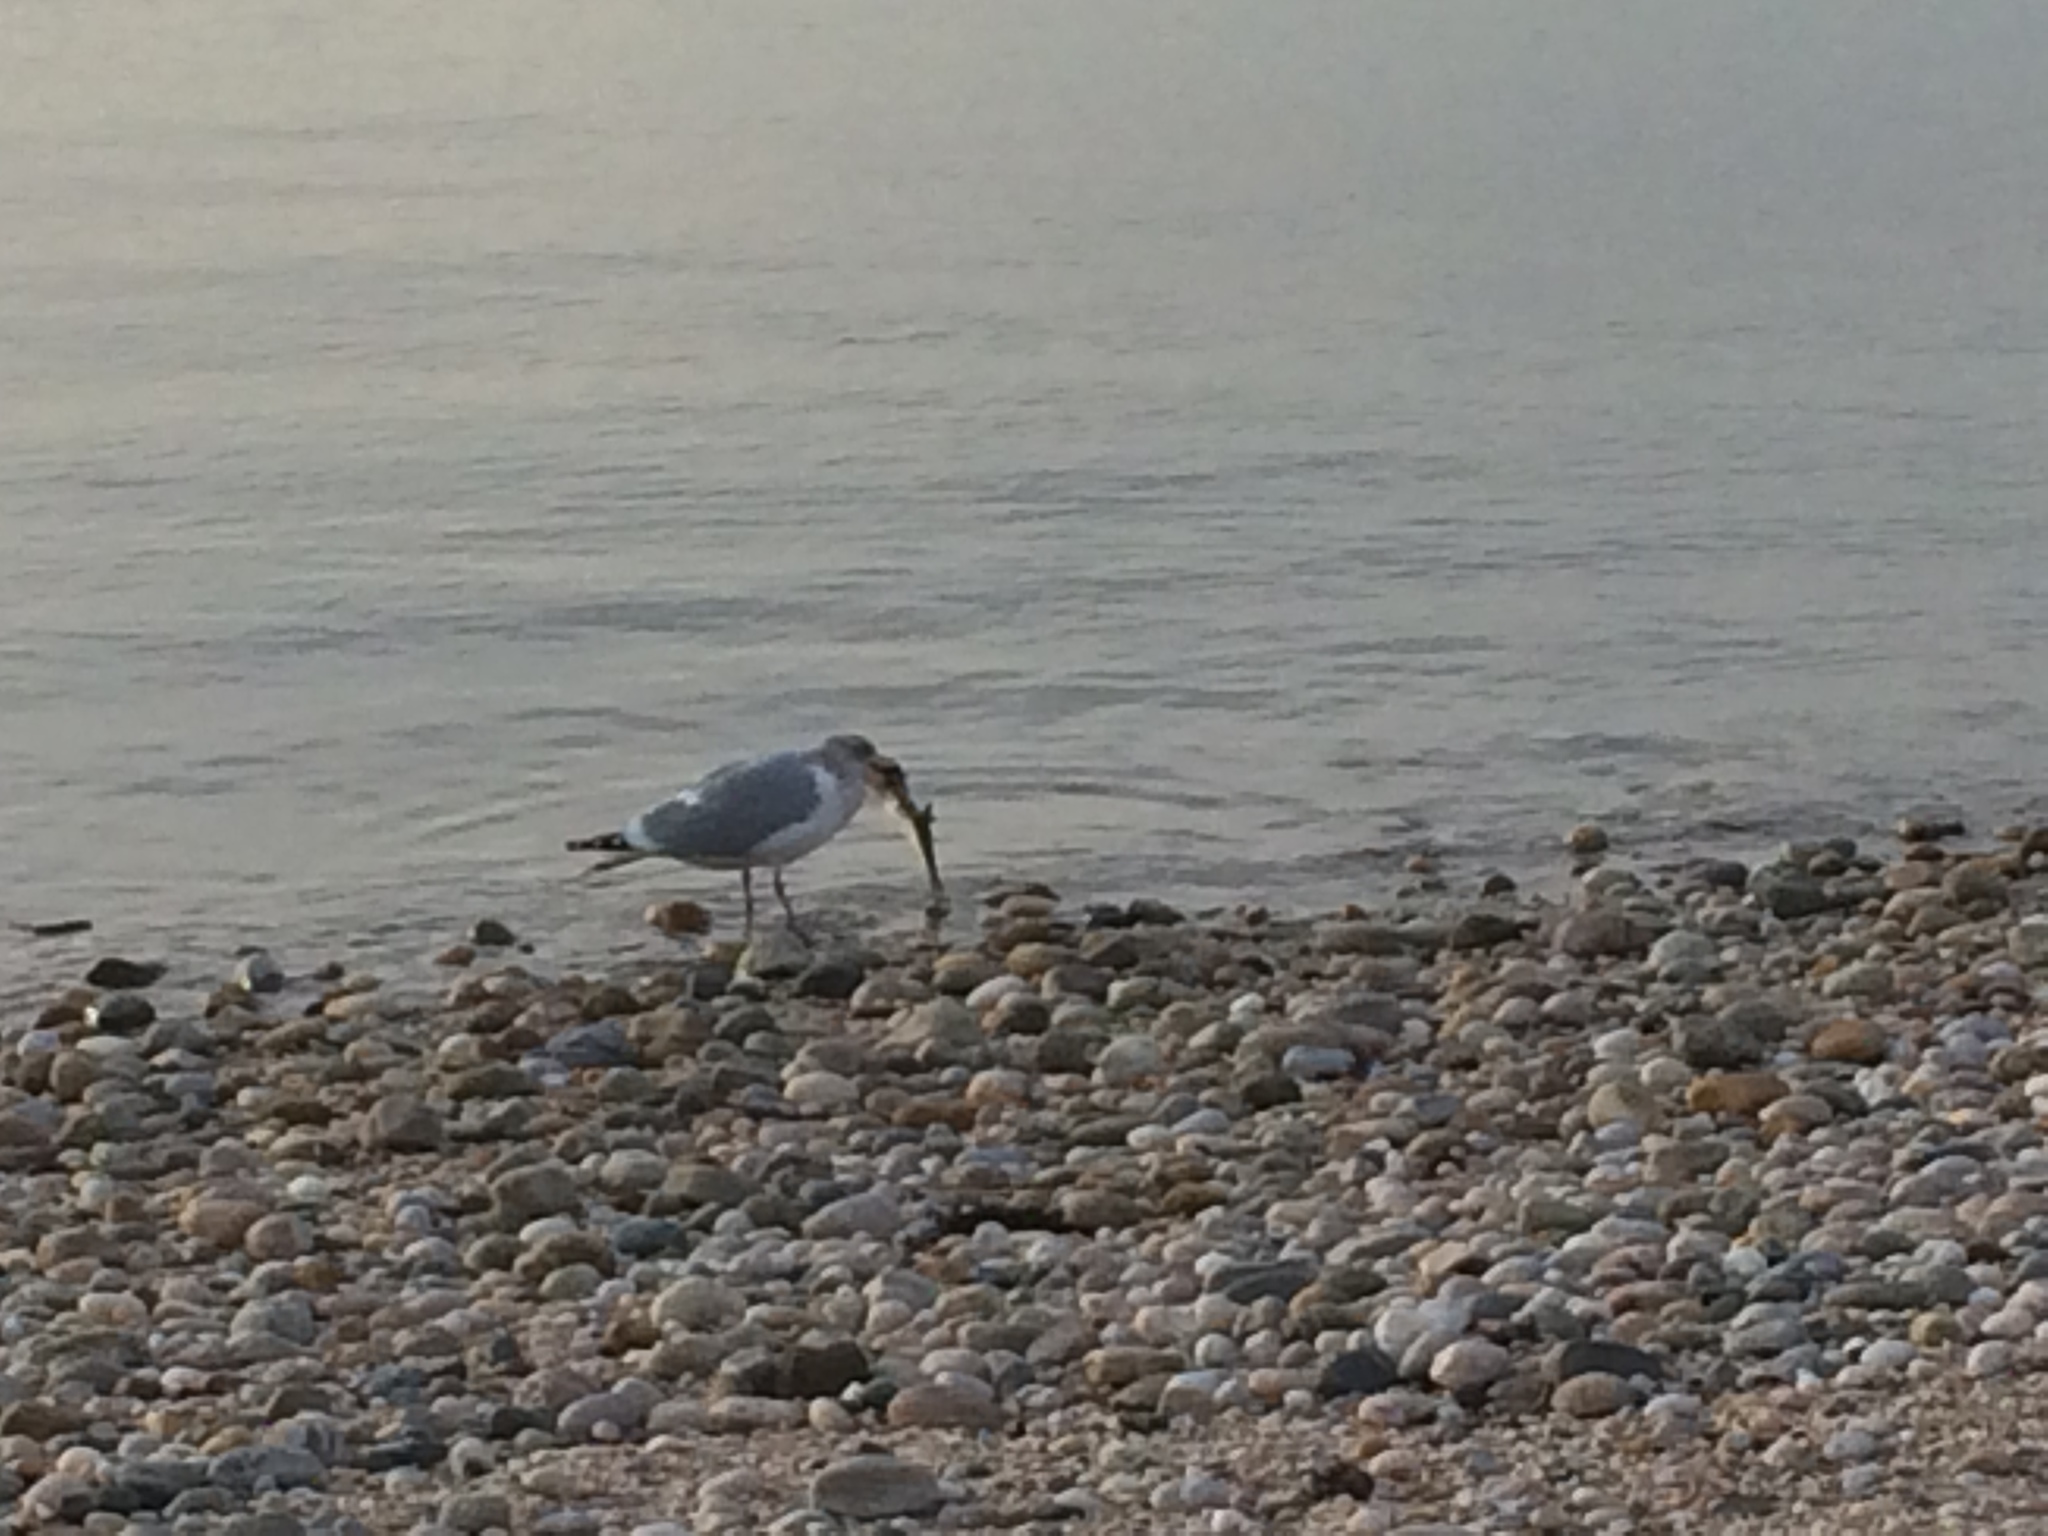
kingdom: Animalia
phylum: Chordata
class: Aves
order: Charadriiformes
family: Laridae
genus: Larus
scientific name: Larus argentatus
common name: Herring gull
